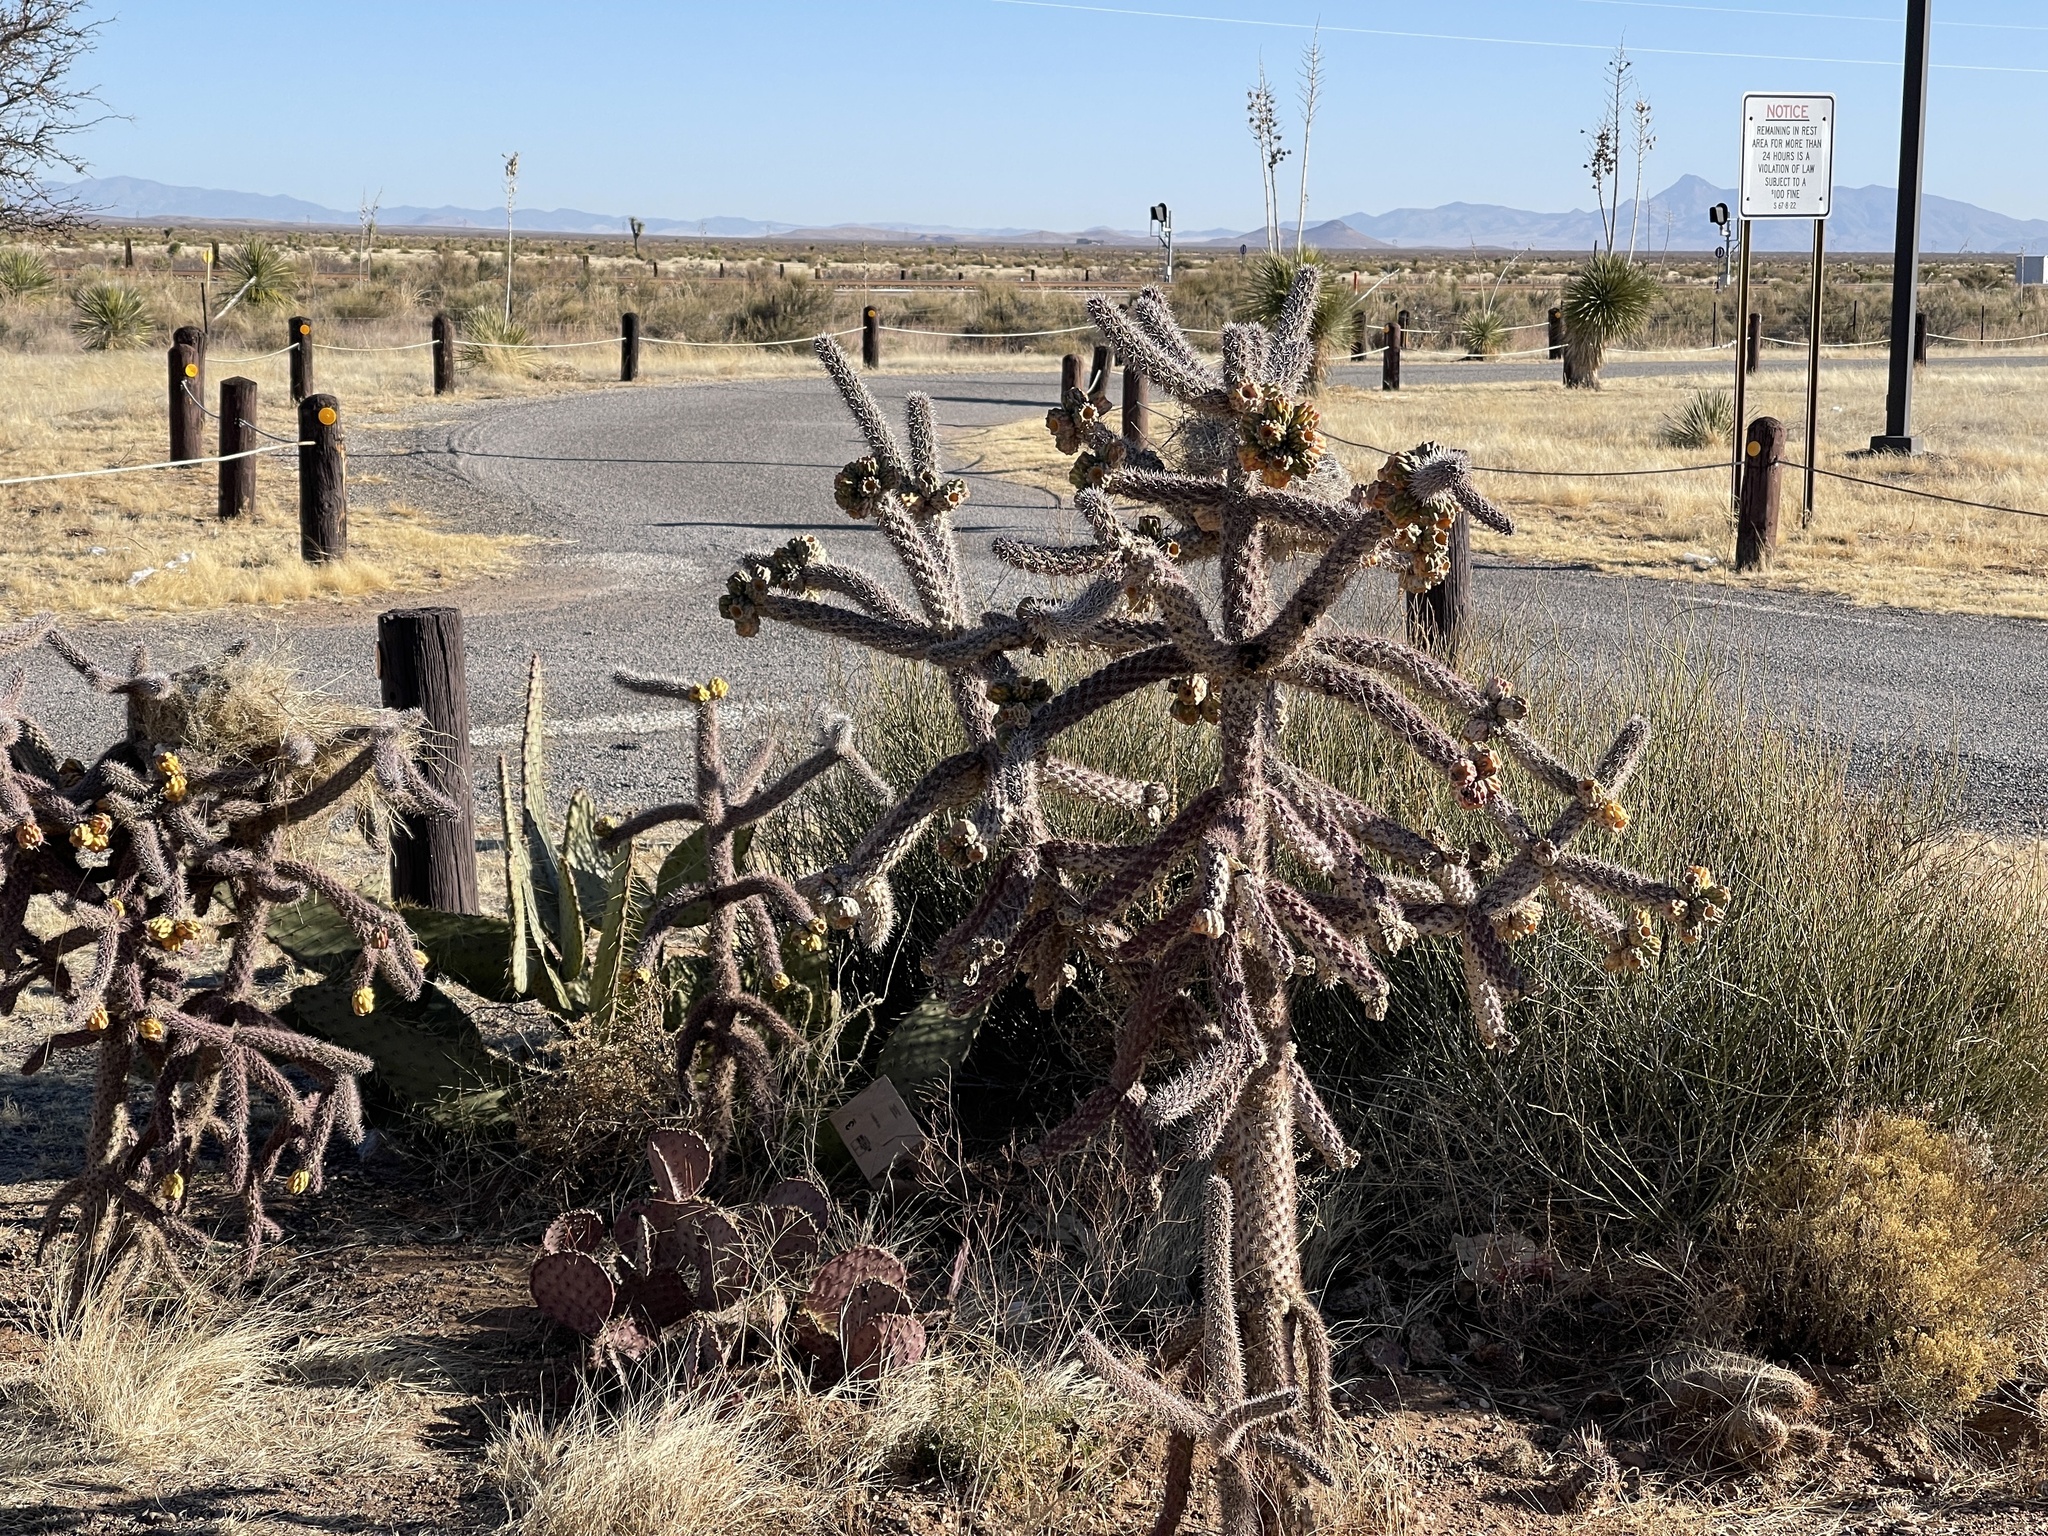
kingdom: Plantae
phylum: Tracheophyta
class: Magnoliopsida
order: Caryophyllales
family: Cactaceae
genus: Cylindropuntia
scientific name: Cylindropuntia imbricata
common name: Candelabrum cactus
